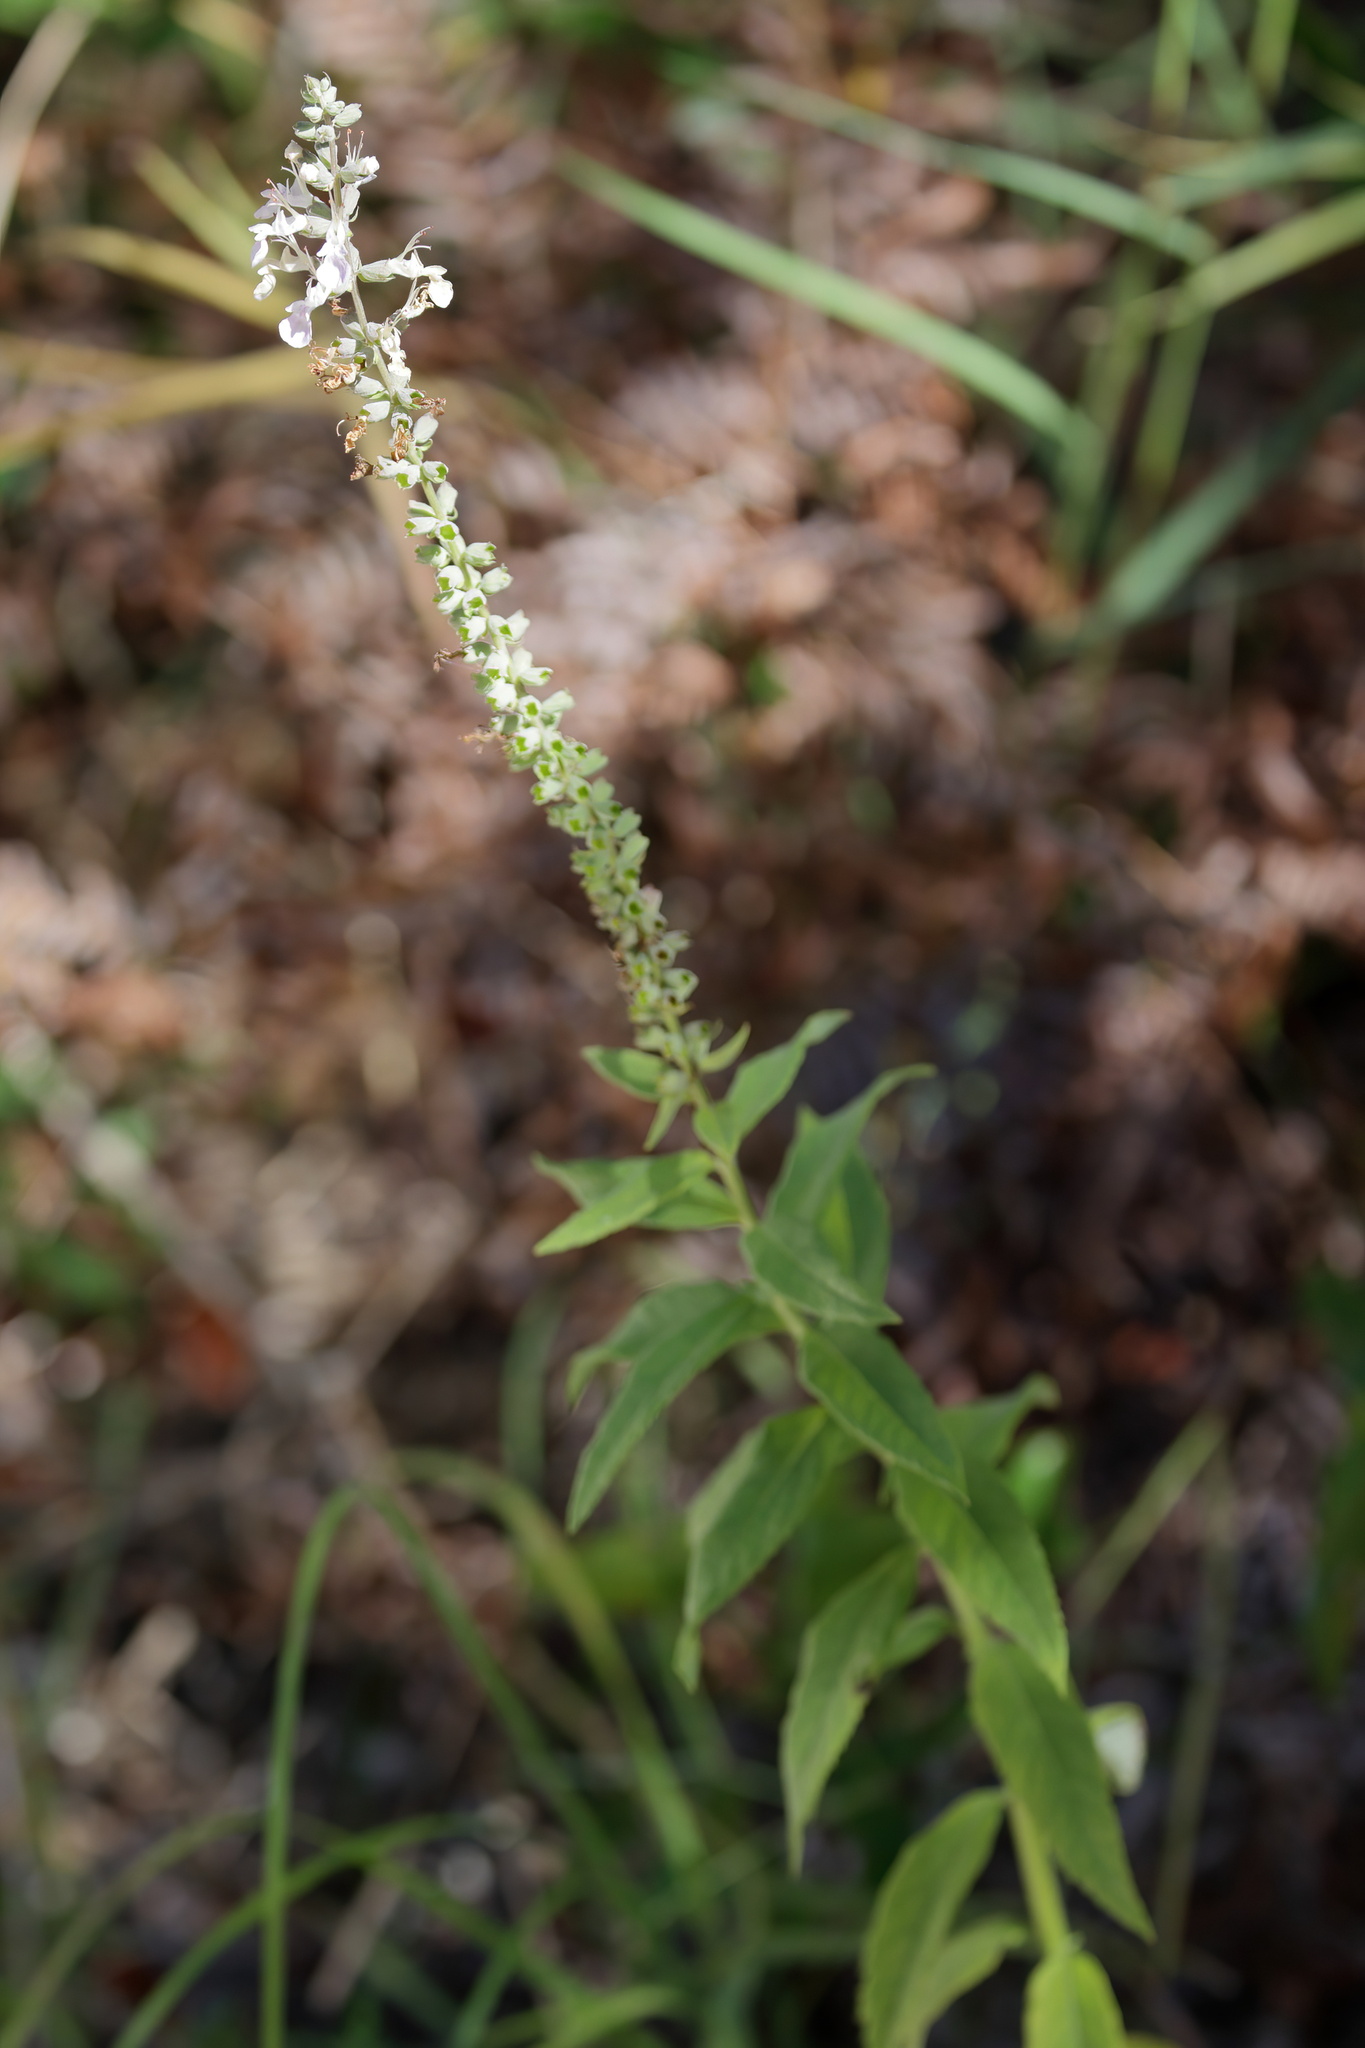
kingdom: Plantae
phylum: Tracheophyta
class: Magnoliopsida
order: Lamiales
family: Lamiaceae
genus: Teucrium
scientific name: Teucrium canadense
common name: American germander
